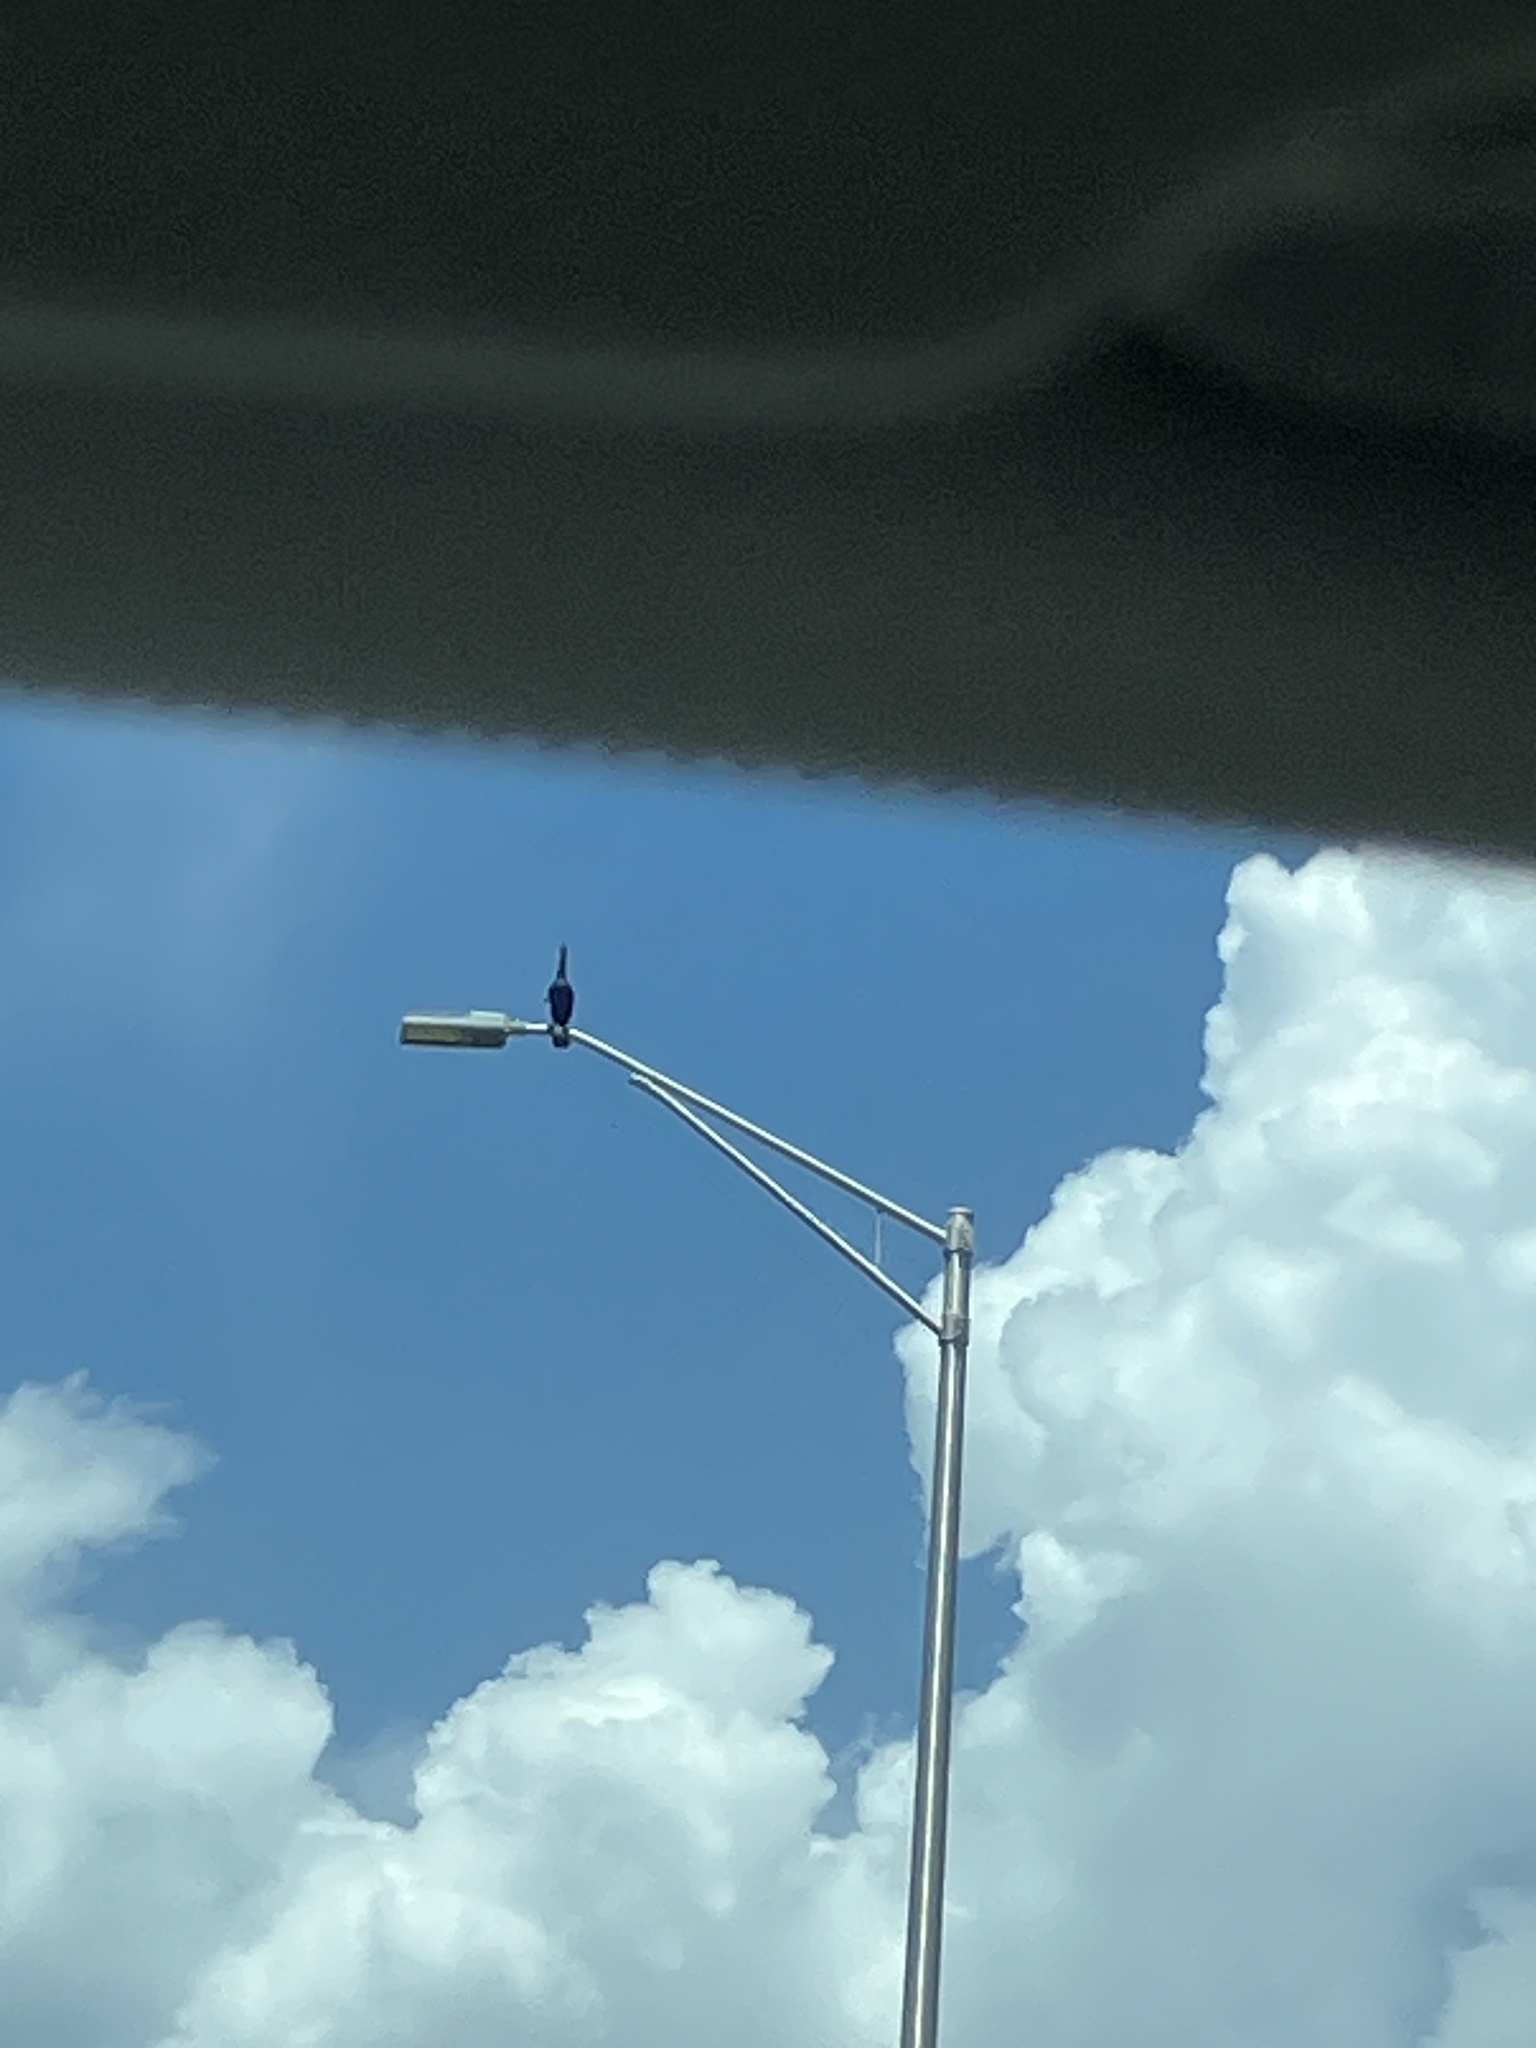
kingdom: Animalia
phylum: Chordata
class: Aves
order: Suliformes
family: Anhingidae
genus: Anhinga
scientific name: Anhinga anhinga
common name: Anhinga
